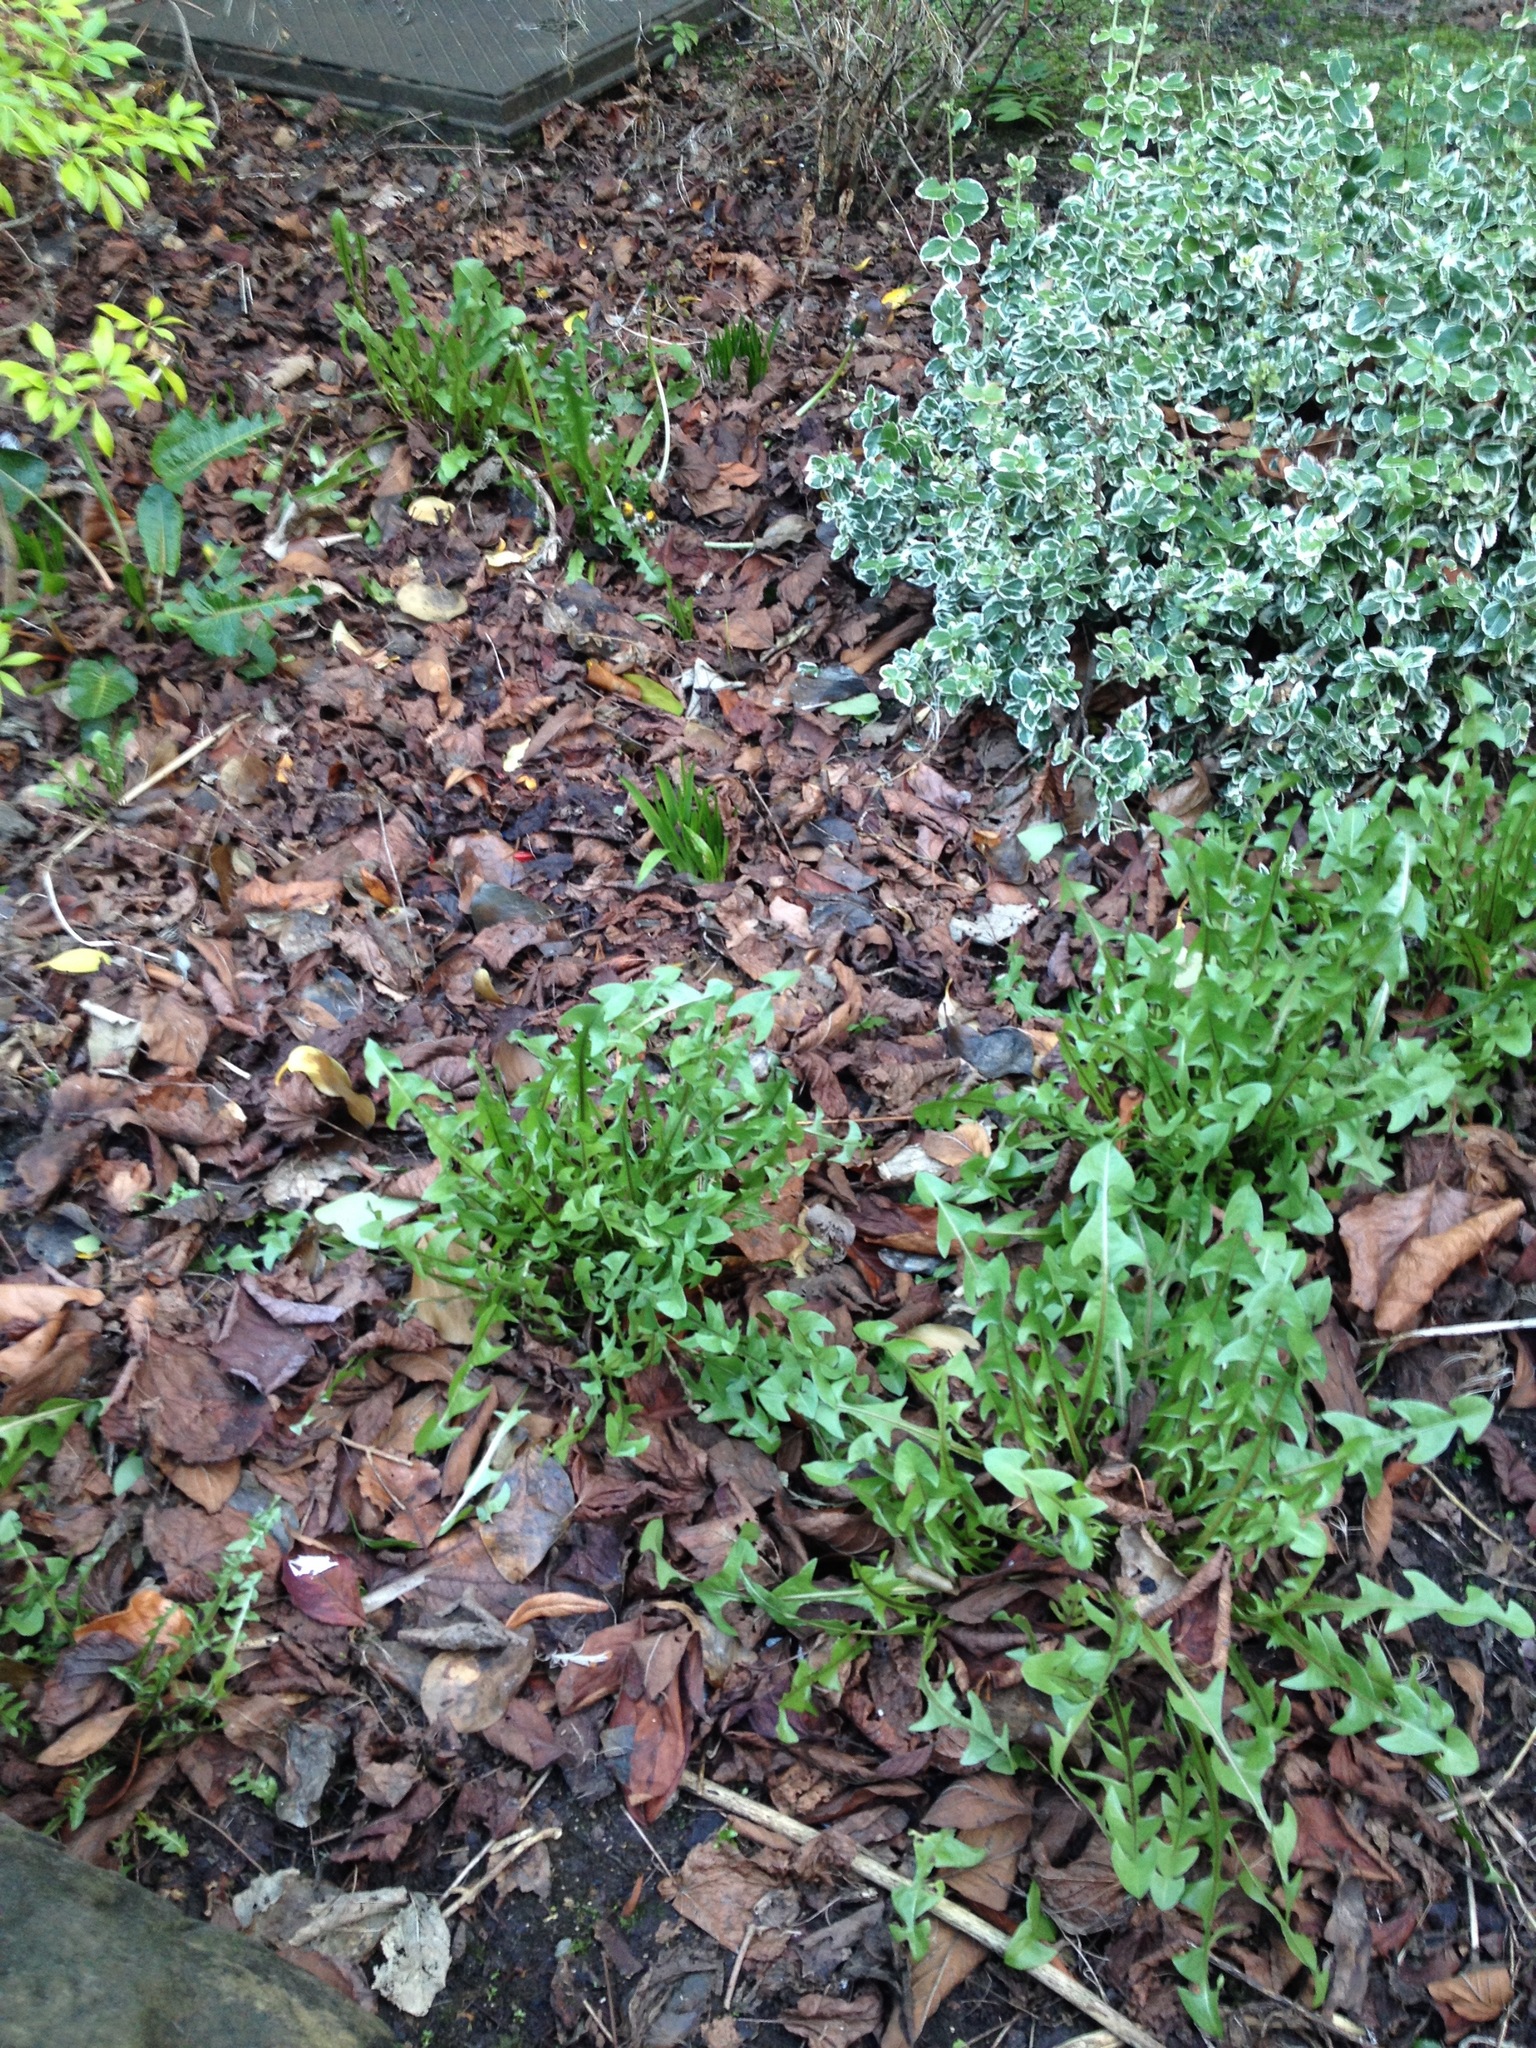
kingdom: Plantae
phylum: Tracheophyta
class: Magnoliopsida
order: Asterales
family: Asteraceae
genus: Taraxacum
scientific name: Taraxacum officinale
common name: Common dandelion
